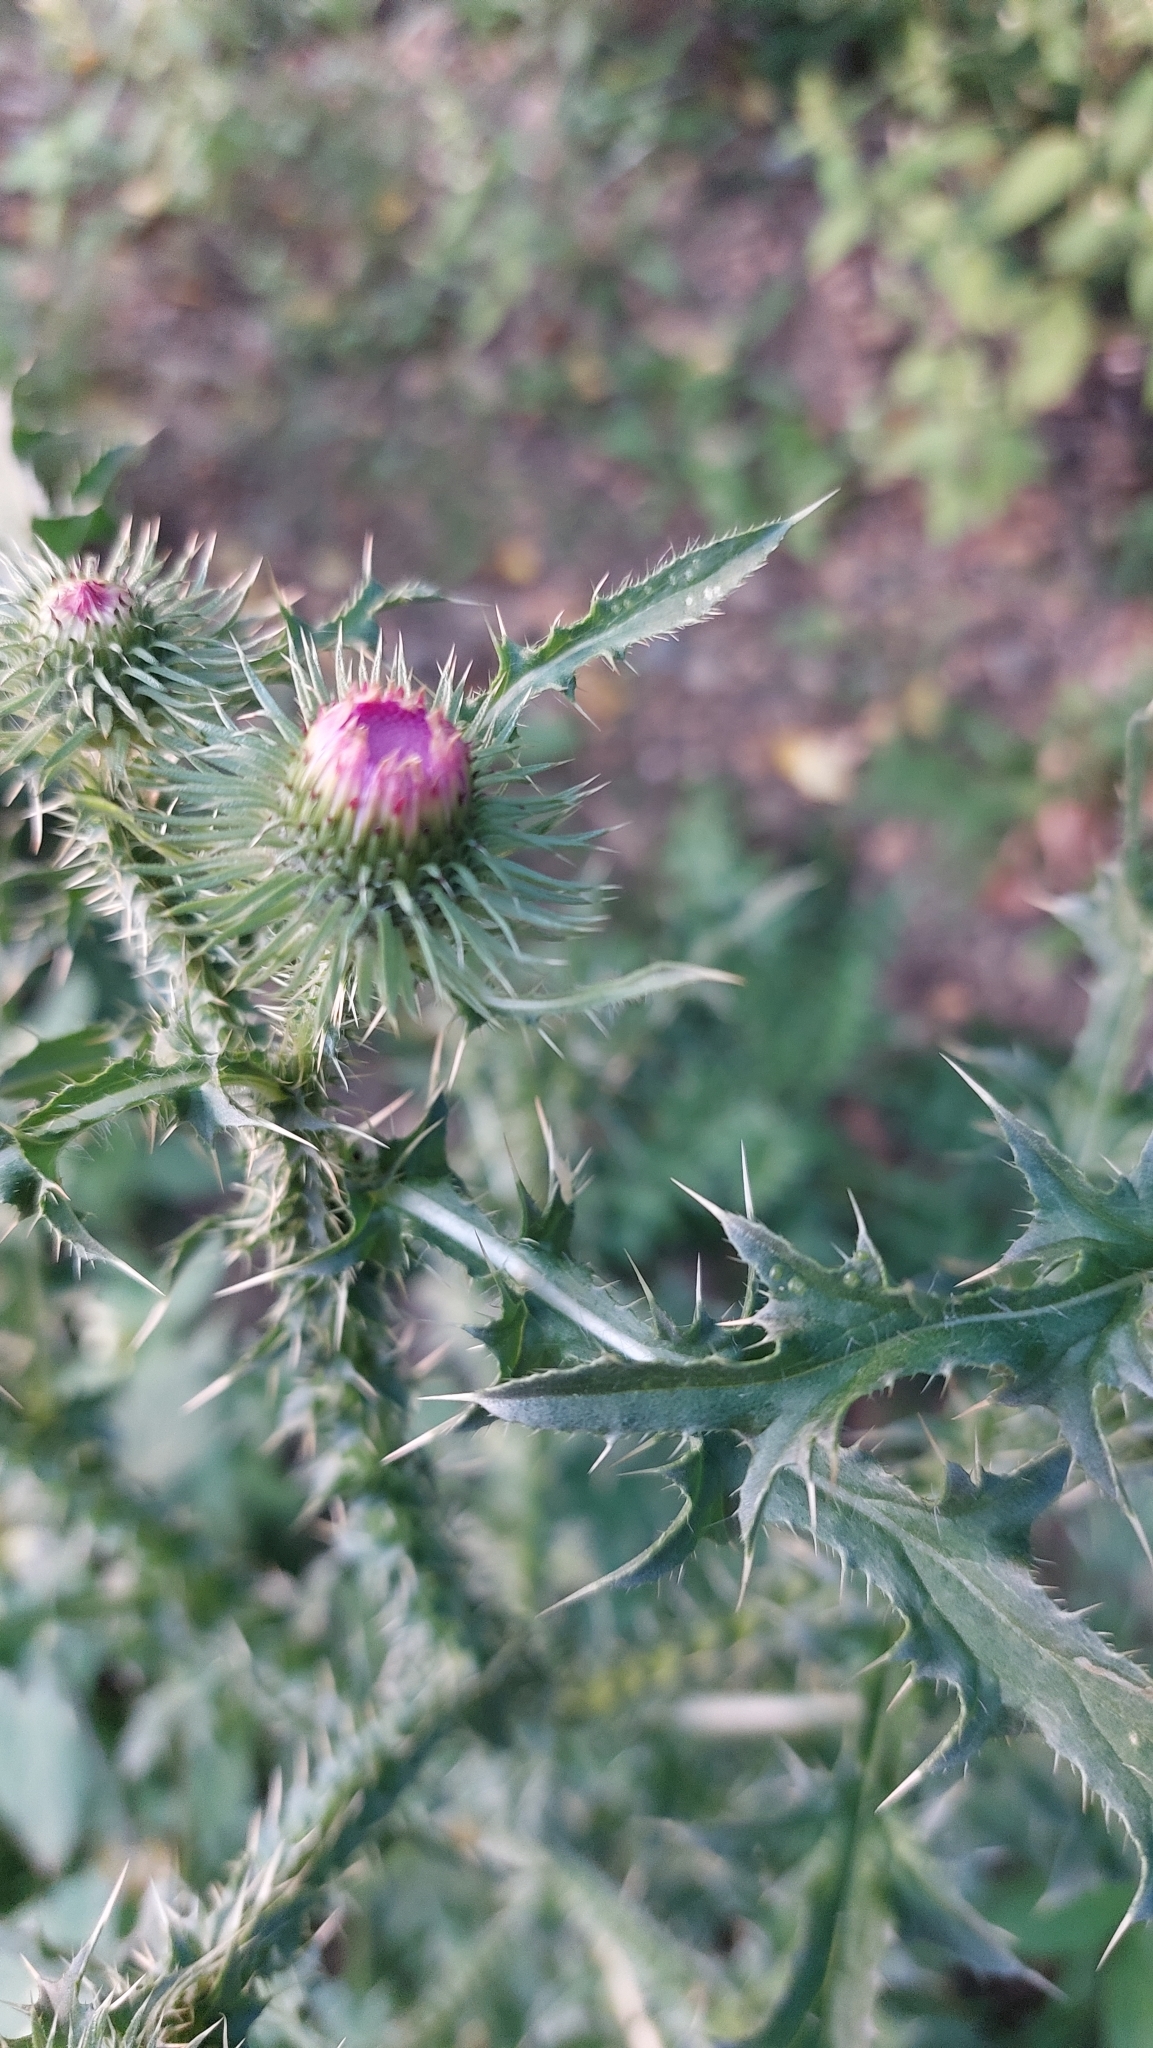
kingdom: Plantae
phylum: Tracheophyta
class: Magnoliopsida
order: Asterales
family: Asteraceae
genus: Carduus
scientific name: Carduus acanthoides
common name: Plumeless thistle
